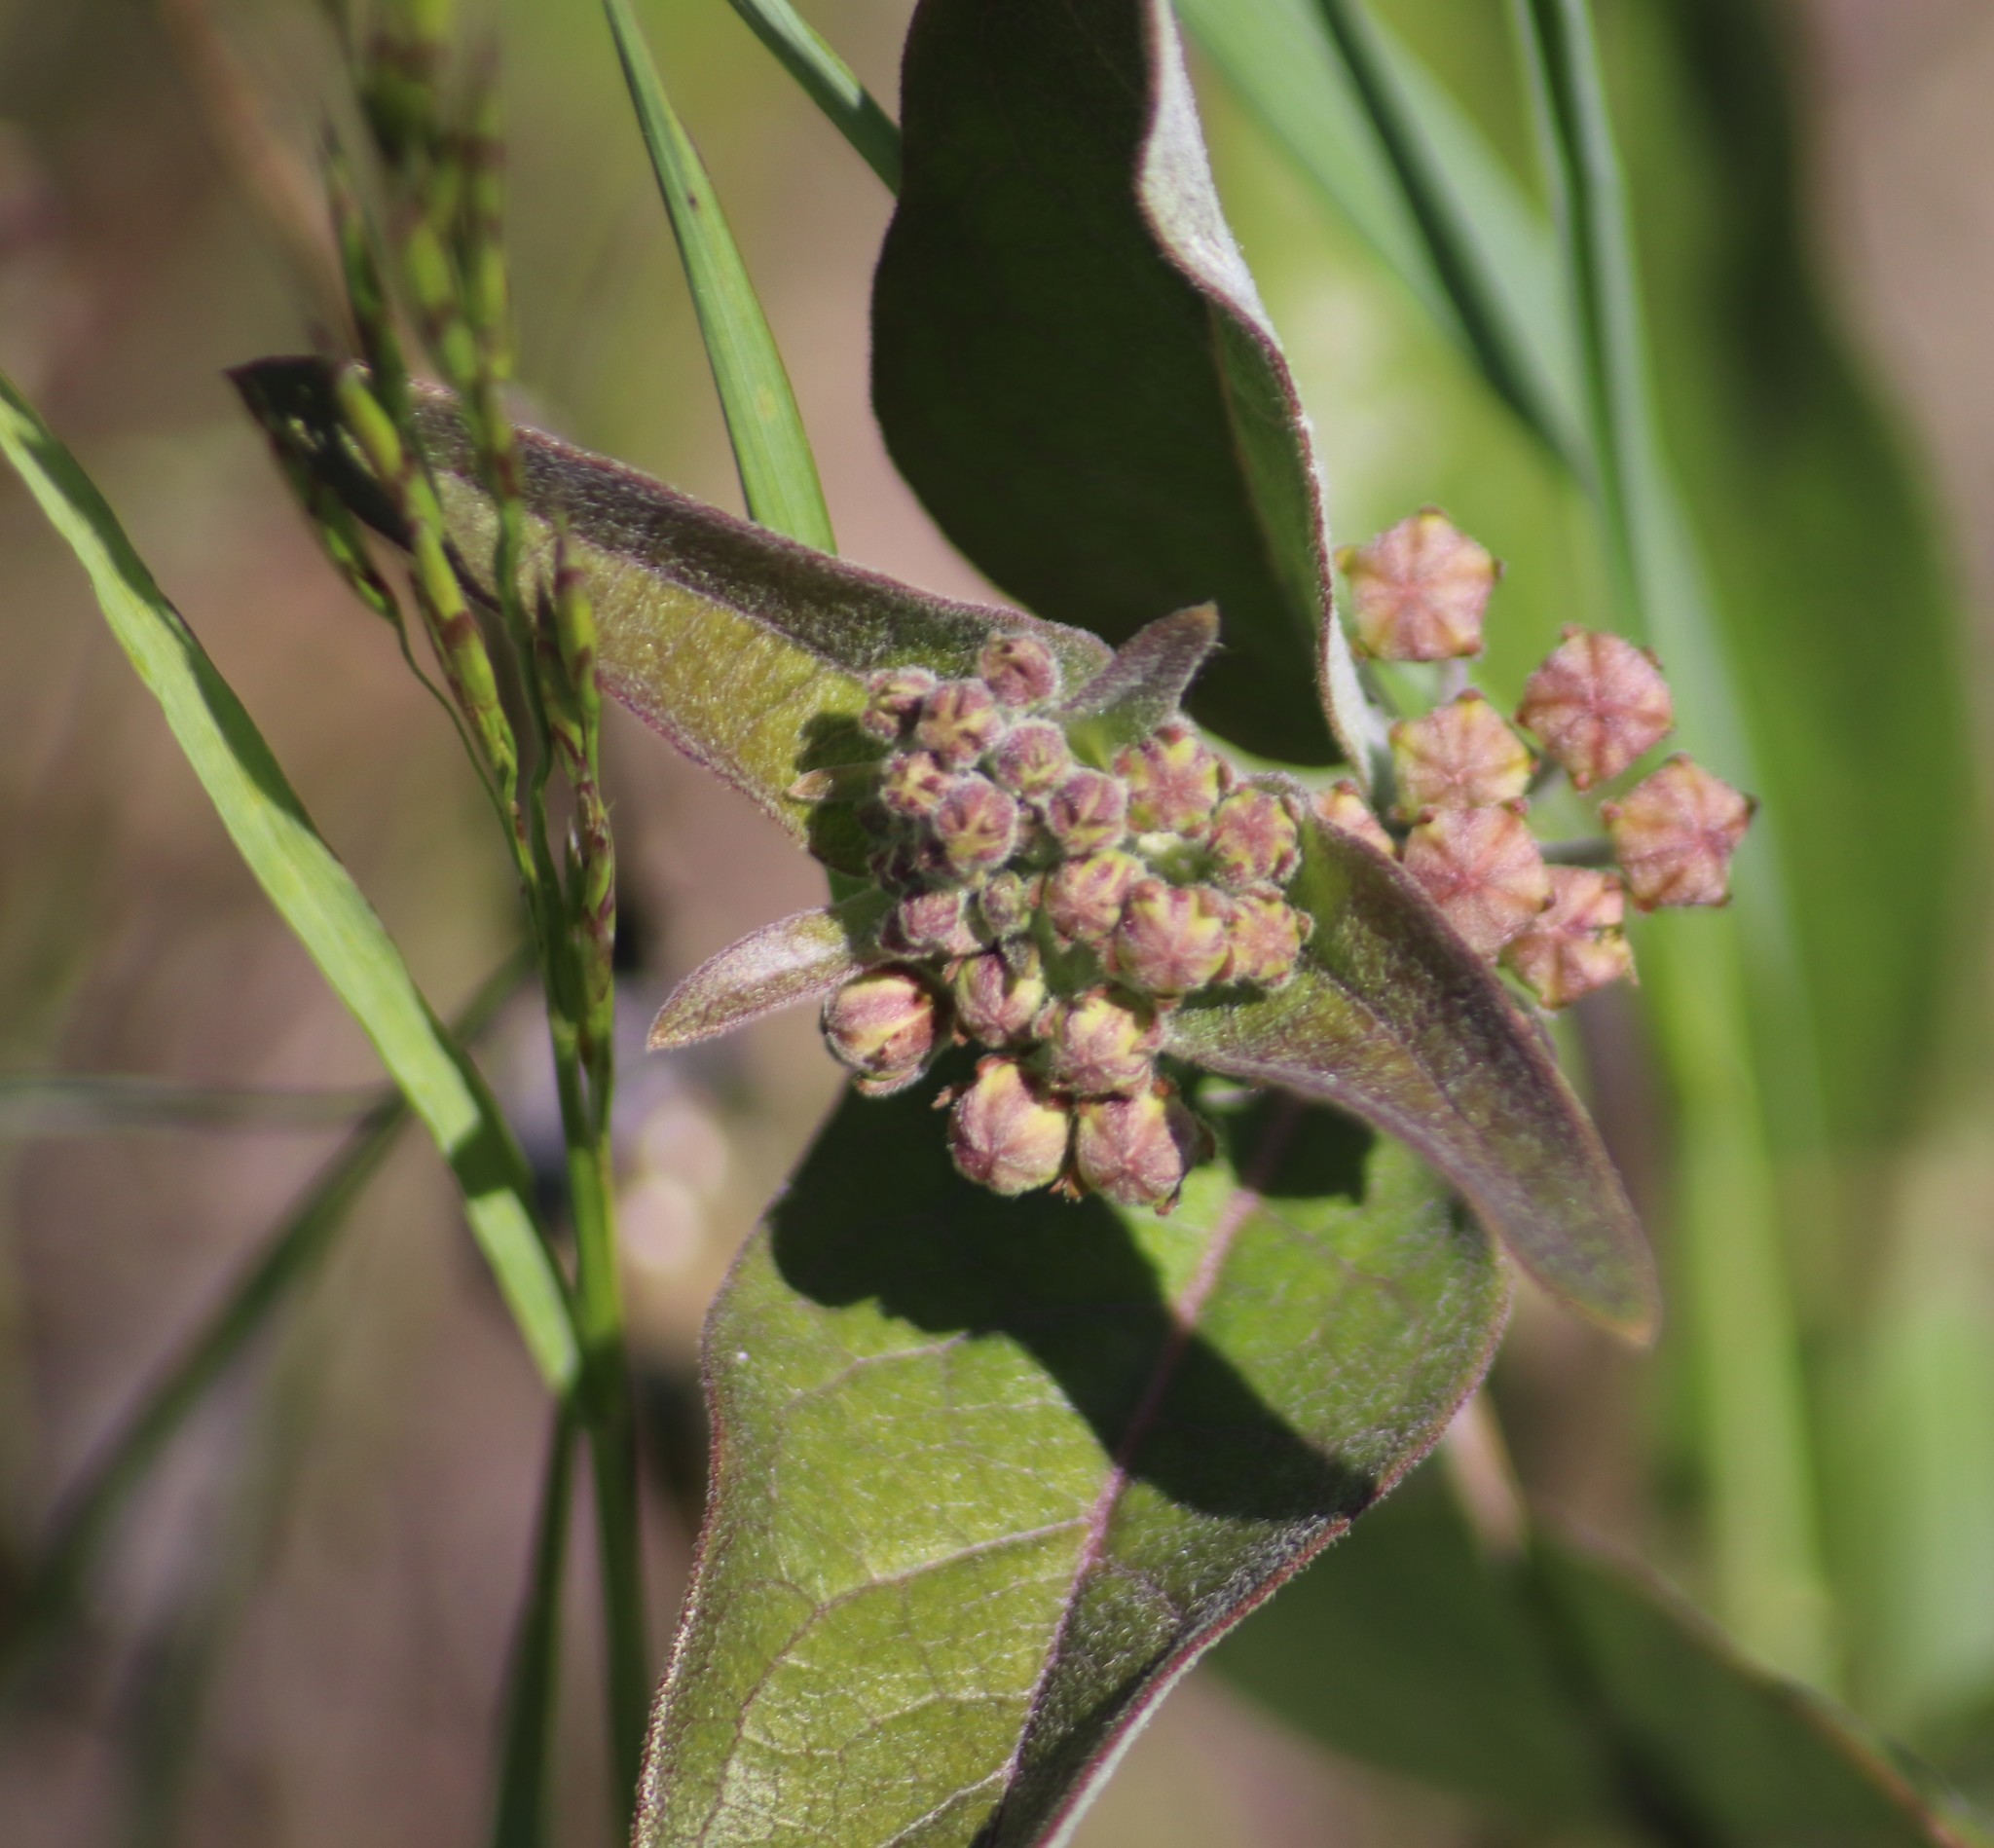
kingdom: Plantae
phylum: Tracheophyta
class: Magnoliopsida
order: Gentianales
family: Apocynaceae
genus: Asclepias
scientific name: Asclepias ovalifolia
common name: Dwarf milkweed
